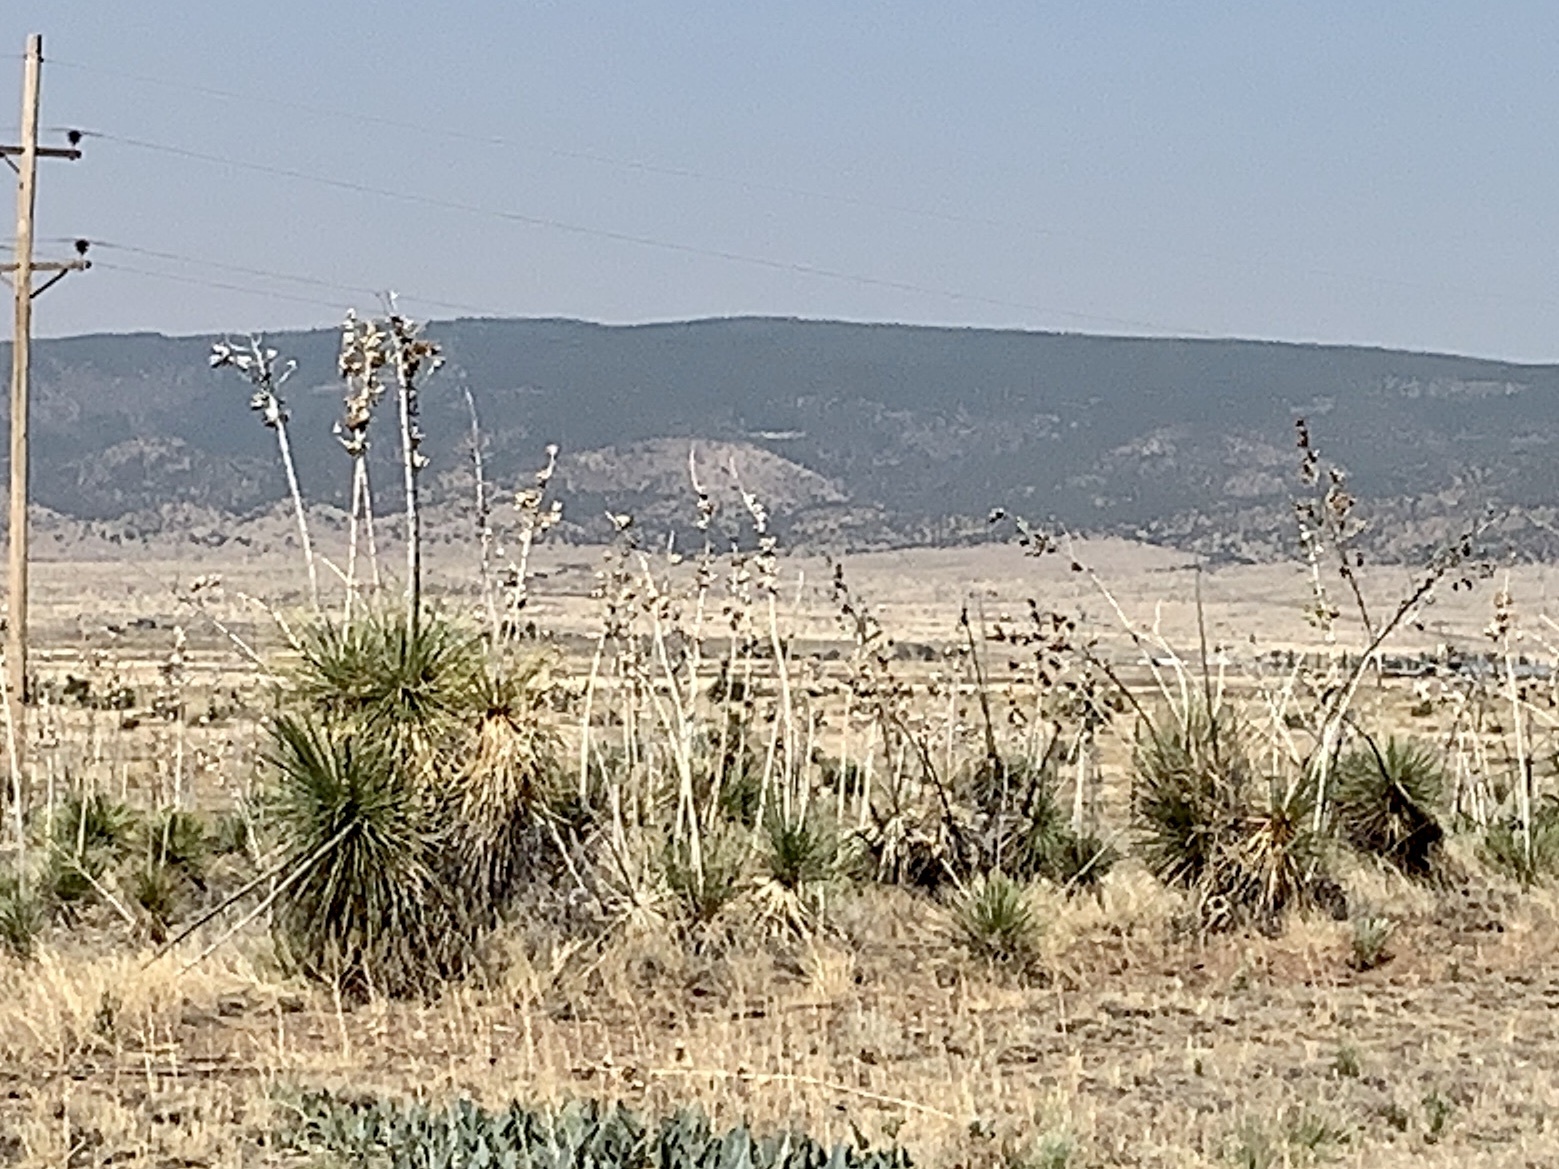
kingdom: Plantae
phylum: Tracheophyta
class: Liliopsida
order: Asparagales
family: Asparagaceae
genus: Yucca
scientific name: Yucca elata
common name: Palmella
